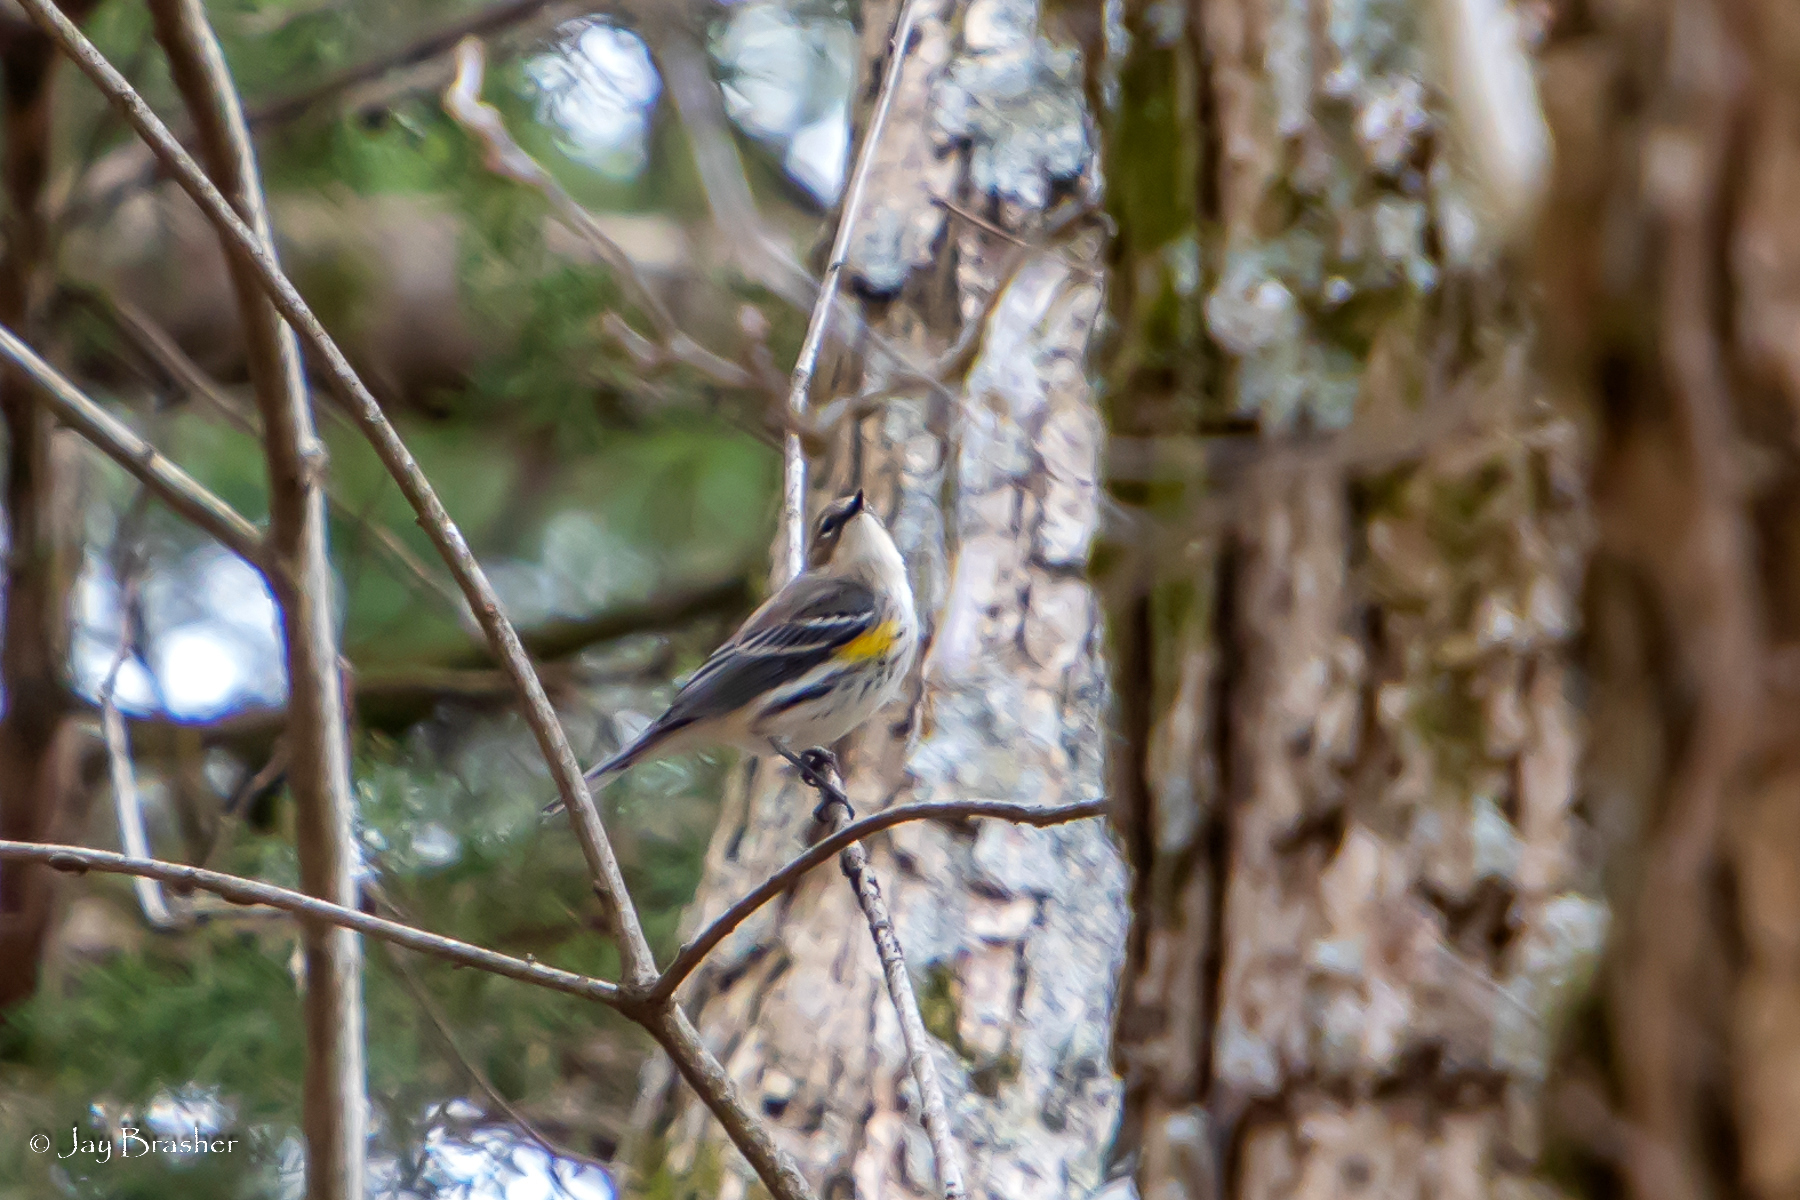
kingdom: Animalia
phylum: Chordata
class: Aves
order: Passeriformes
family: Parulidae
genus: Setophaga
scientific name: Setophaga coronata
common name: Myrtle warbler
